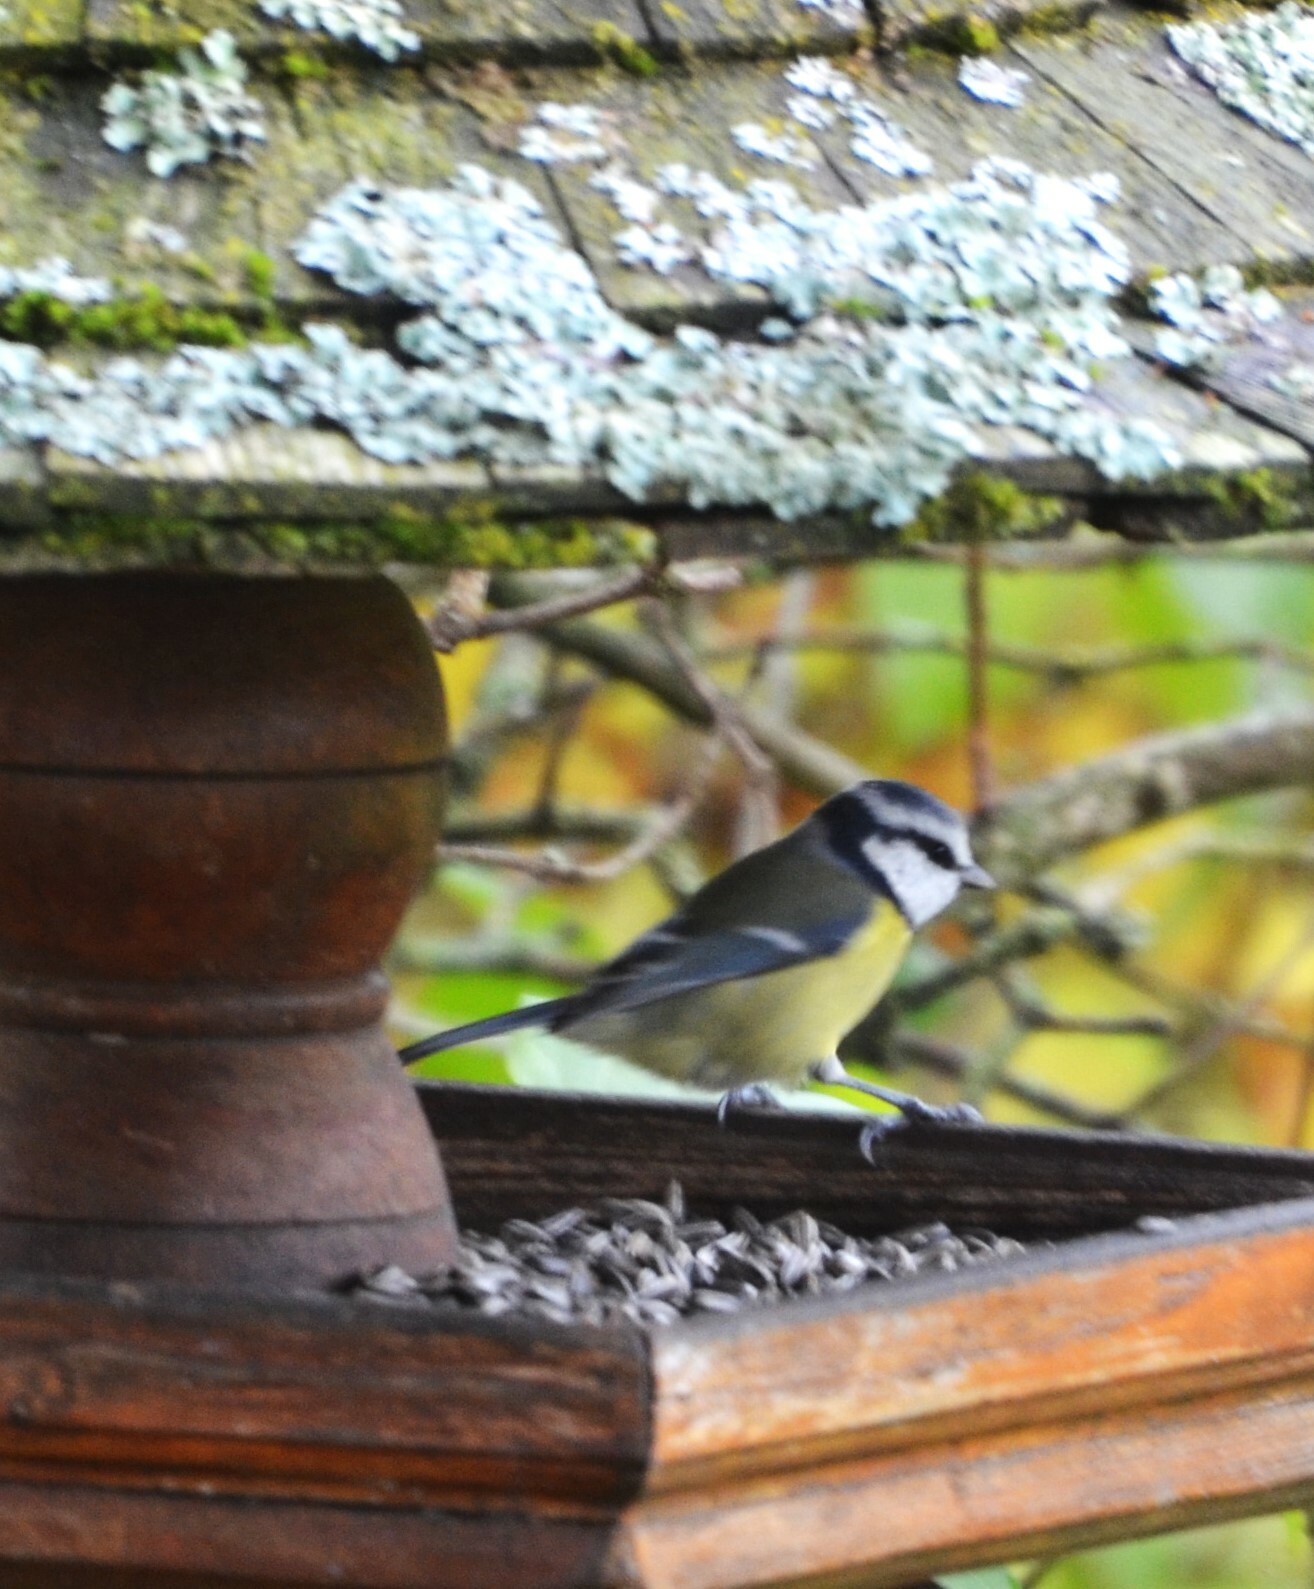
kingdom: Animalia
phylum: Chordata
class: Aves
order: Passeriformes
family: Paridae
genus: Cyanistes
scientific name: Cyanistes caeruleus
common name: Eurasian blue tit
